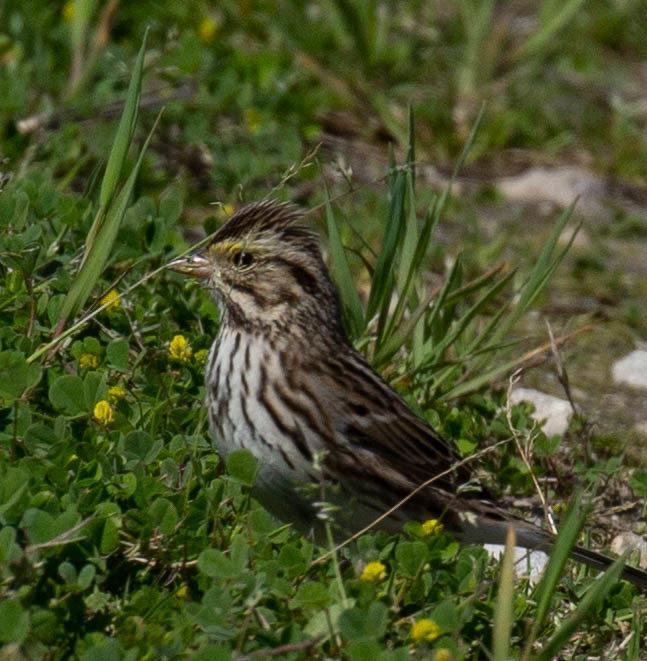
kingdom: Animalia
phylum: Chordata
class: Aves
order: Passeriformes
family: Passerellidae
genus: Passerculus
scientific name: Passerculus sandwichensis
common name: Savannah sparrow
